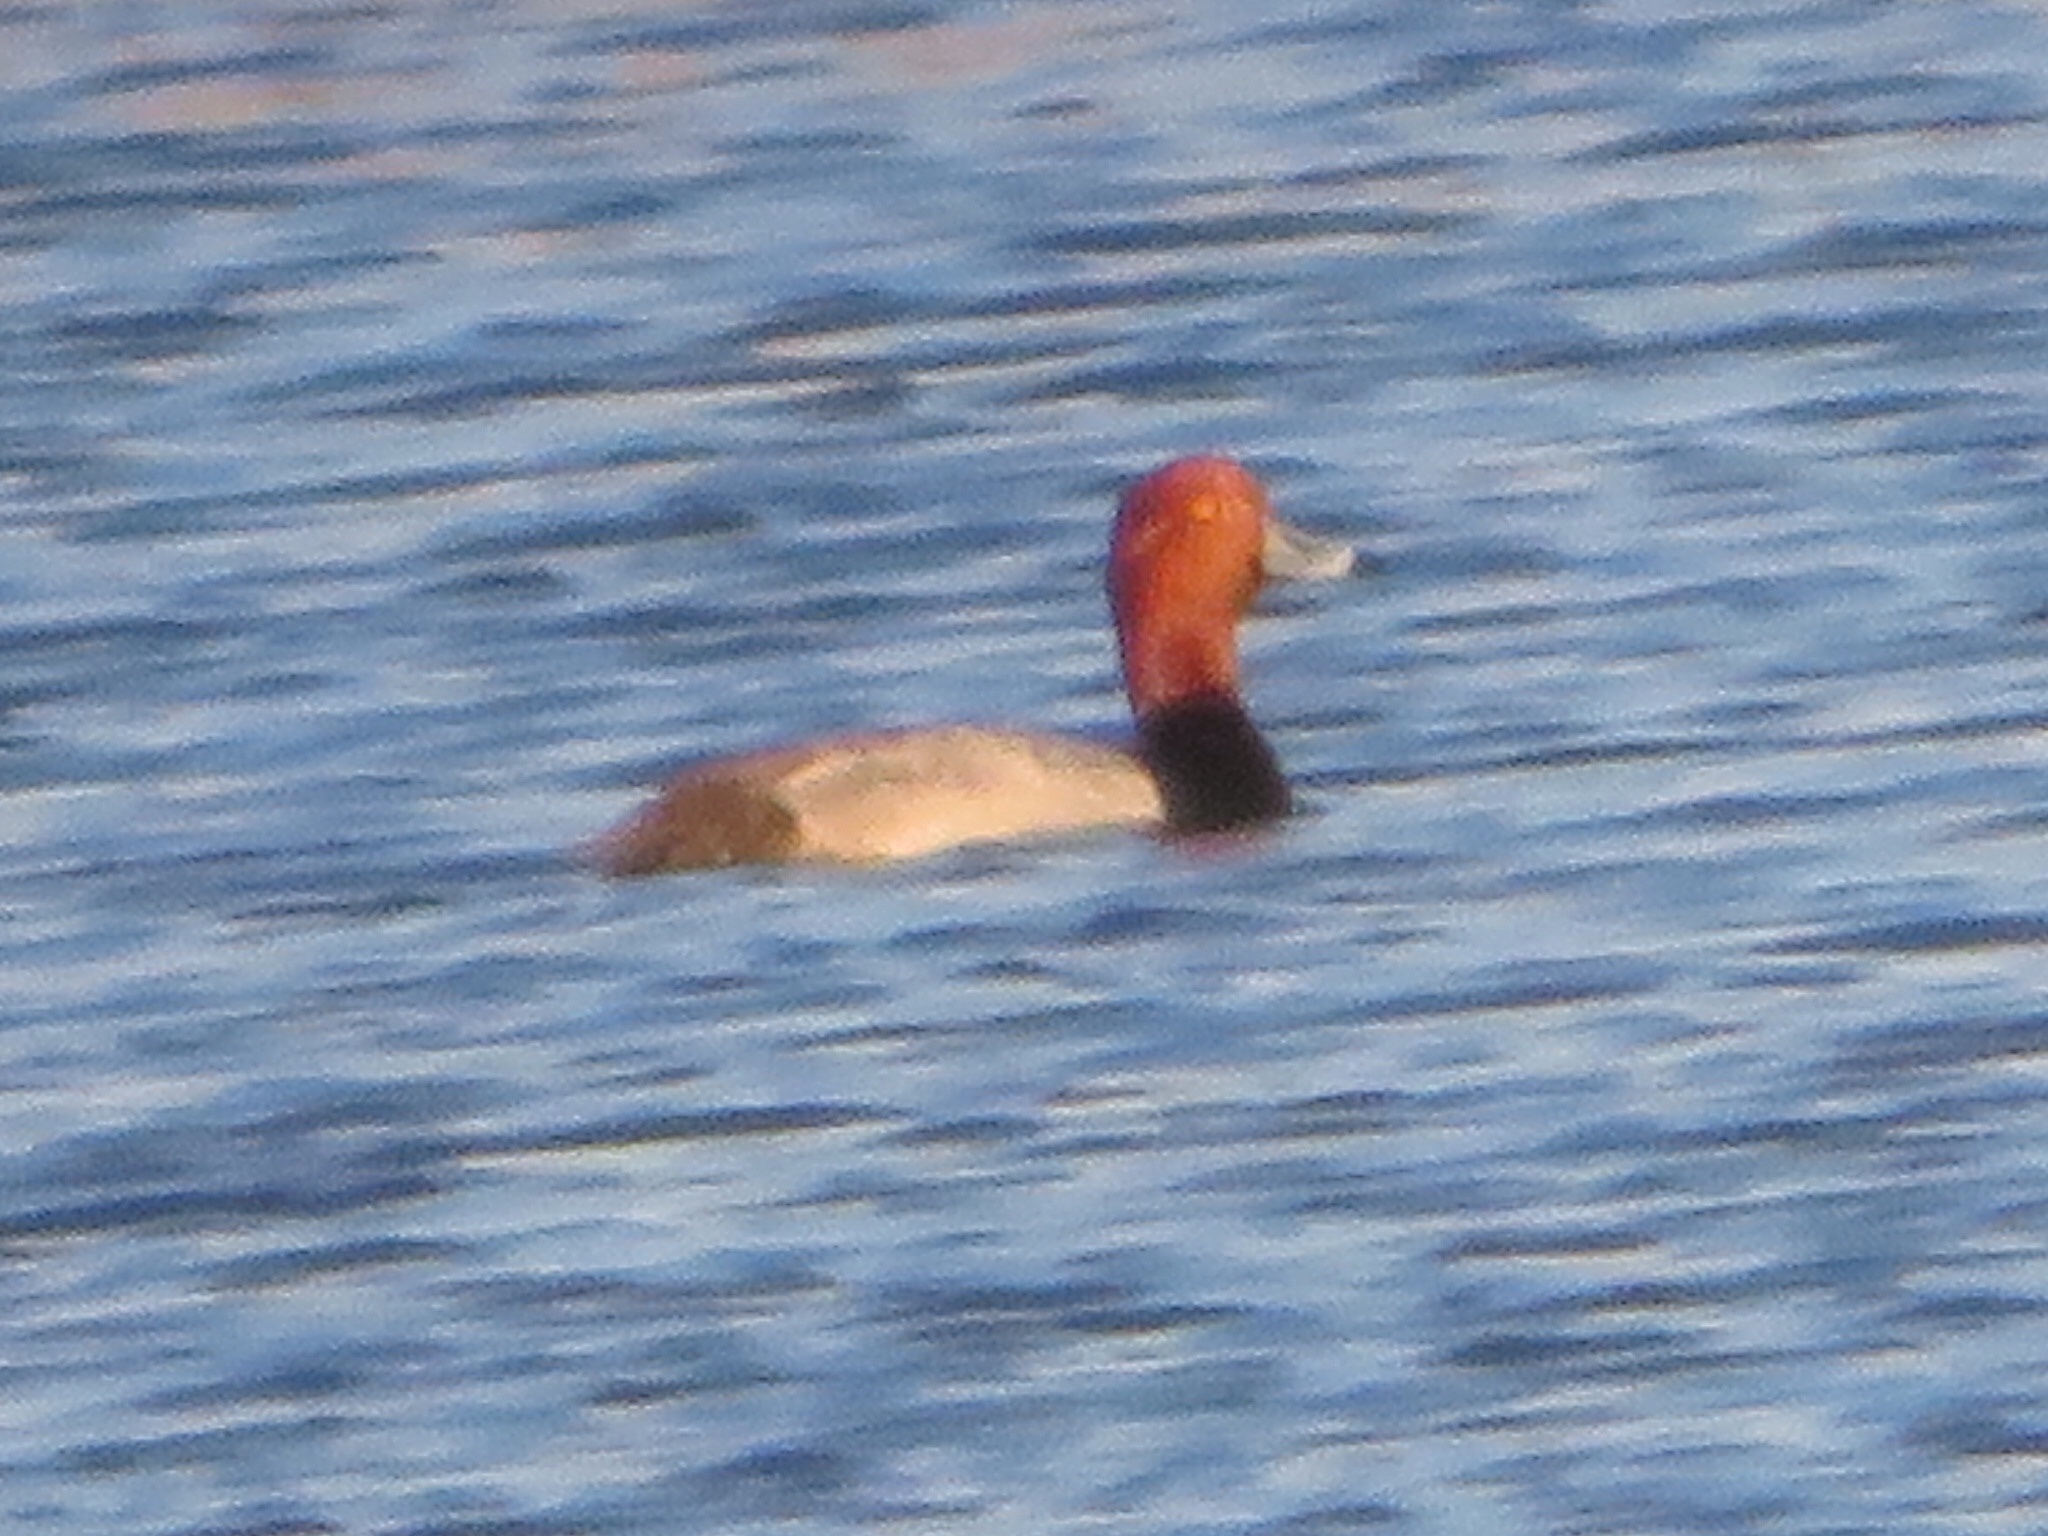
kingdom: Animalia
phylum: Chordata
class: Aves
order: Anseriformes
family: Anatidae
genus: Aythya
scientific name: Aythya americana
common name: Redhead
